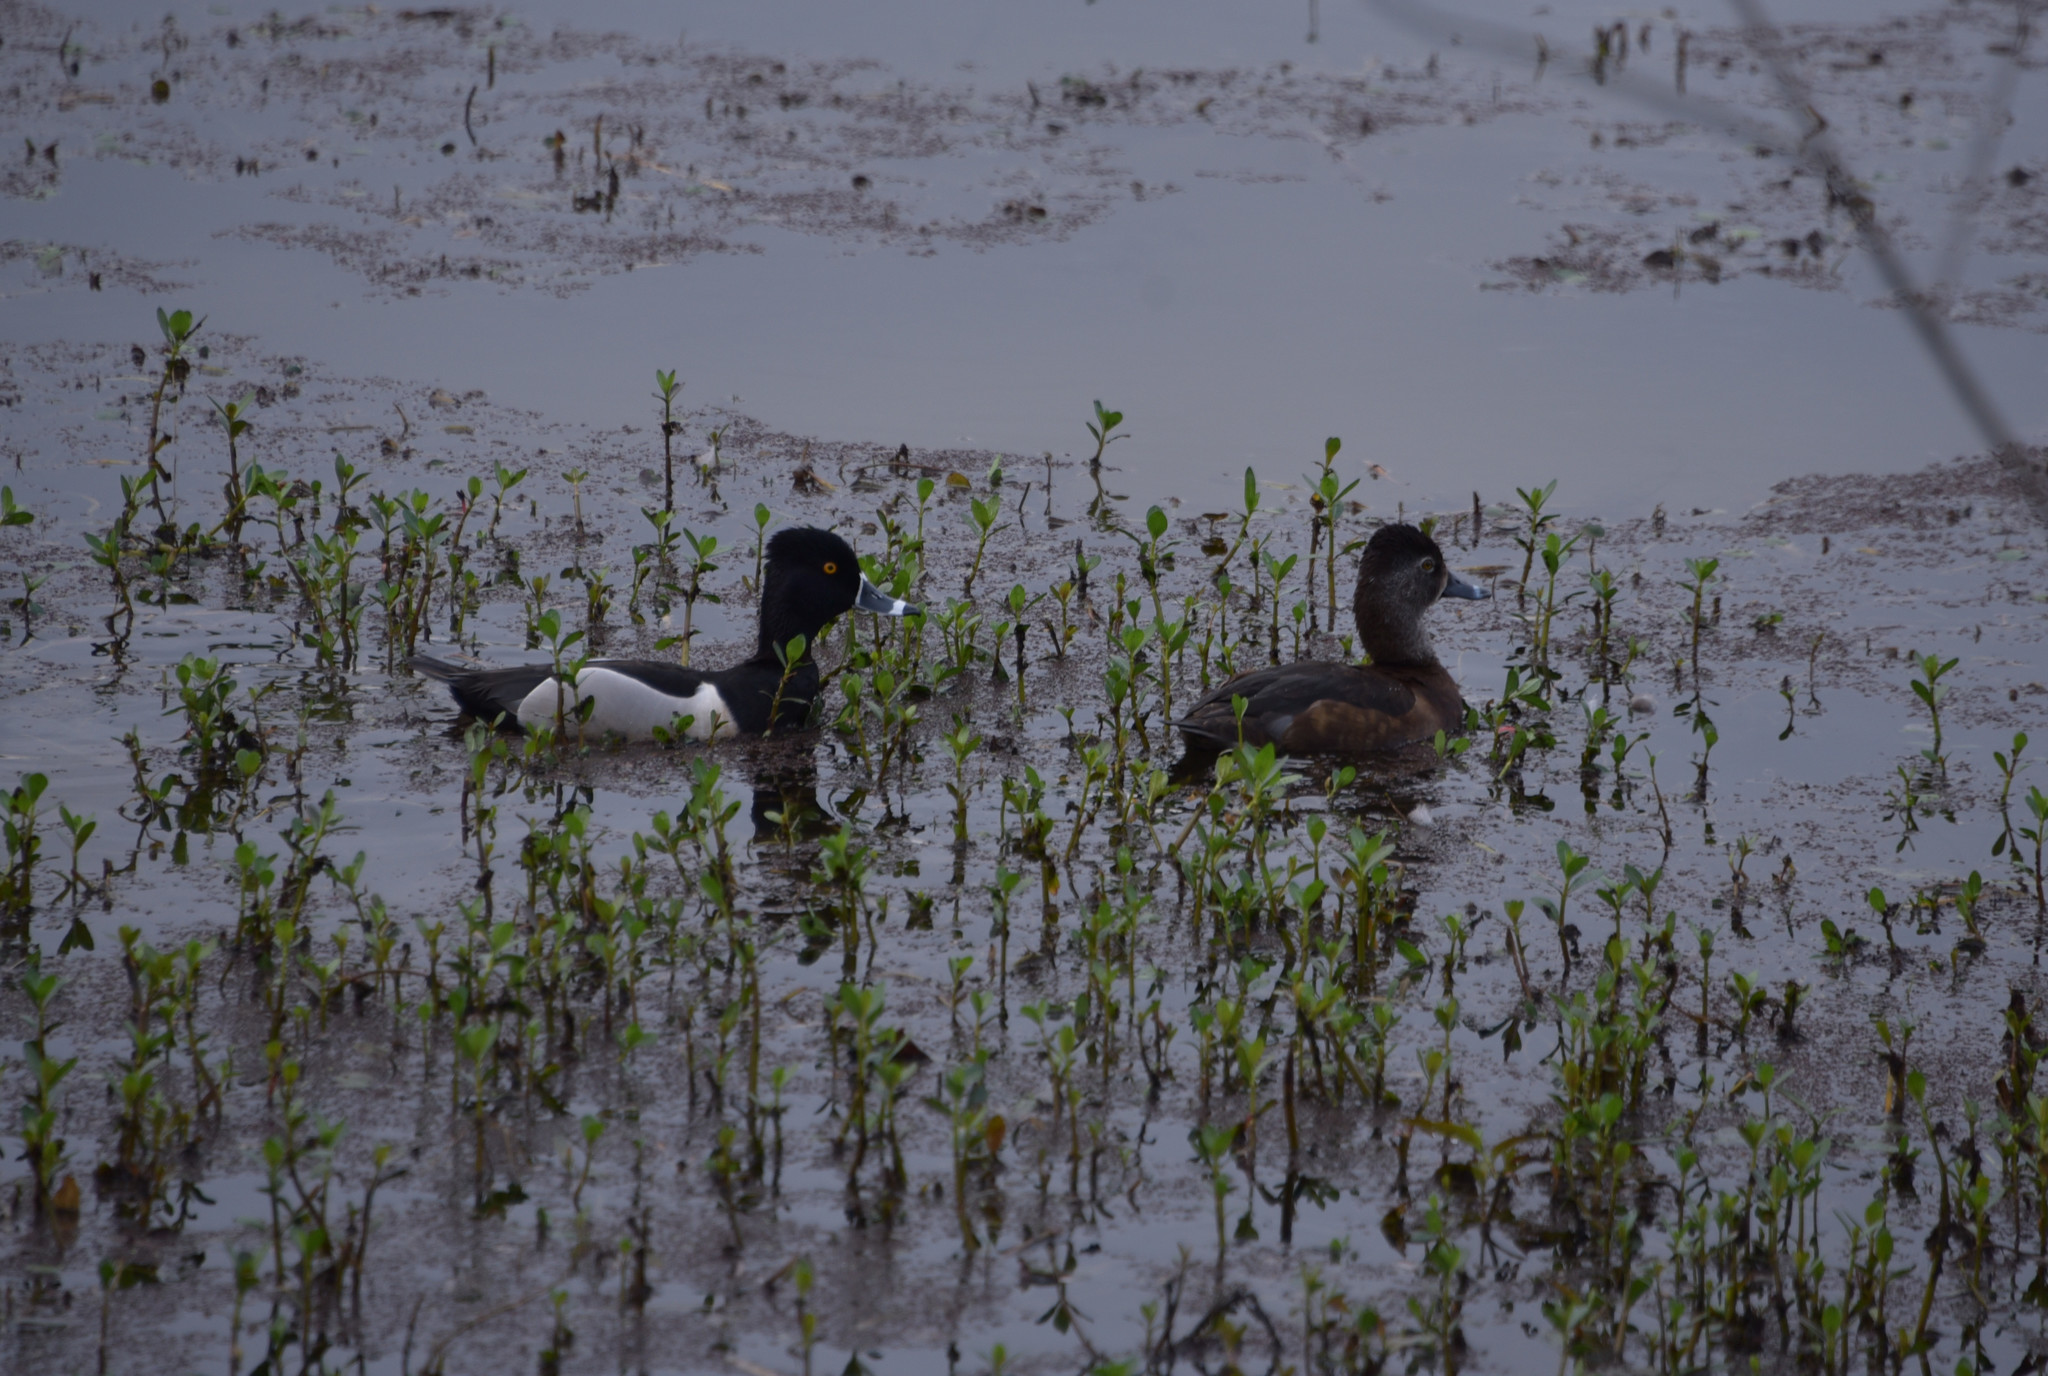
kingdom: Animalia
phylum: Chordata
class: Aves
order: Anseriformes
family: Anatidae
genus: Aythya
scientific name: Aythya collaris
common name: Ring-necked duck
